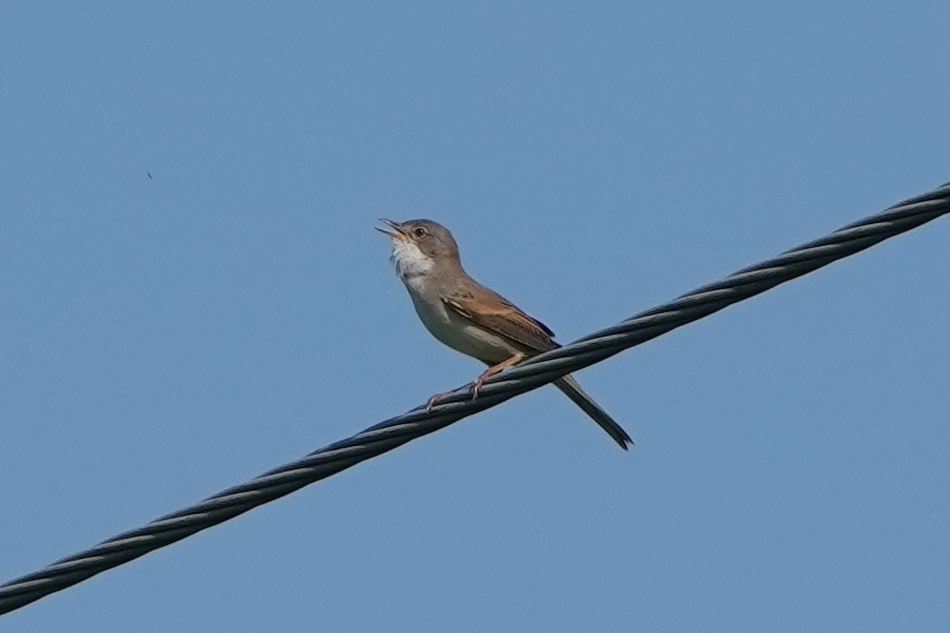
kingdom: Animalia
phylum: Chordata
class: Aves
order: Passeriformes
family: Sylviidae
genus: Sylvia
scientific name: Sylvia communis
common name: Common whitethroat
